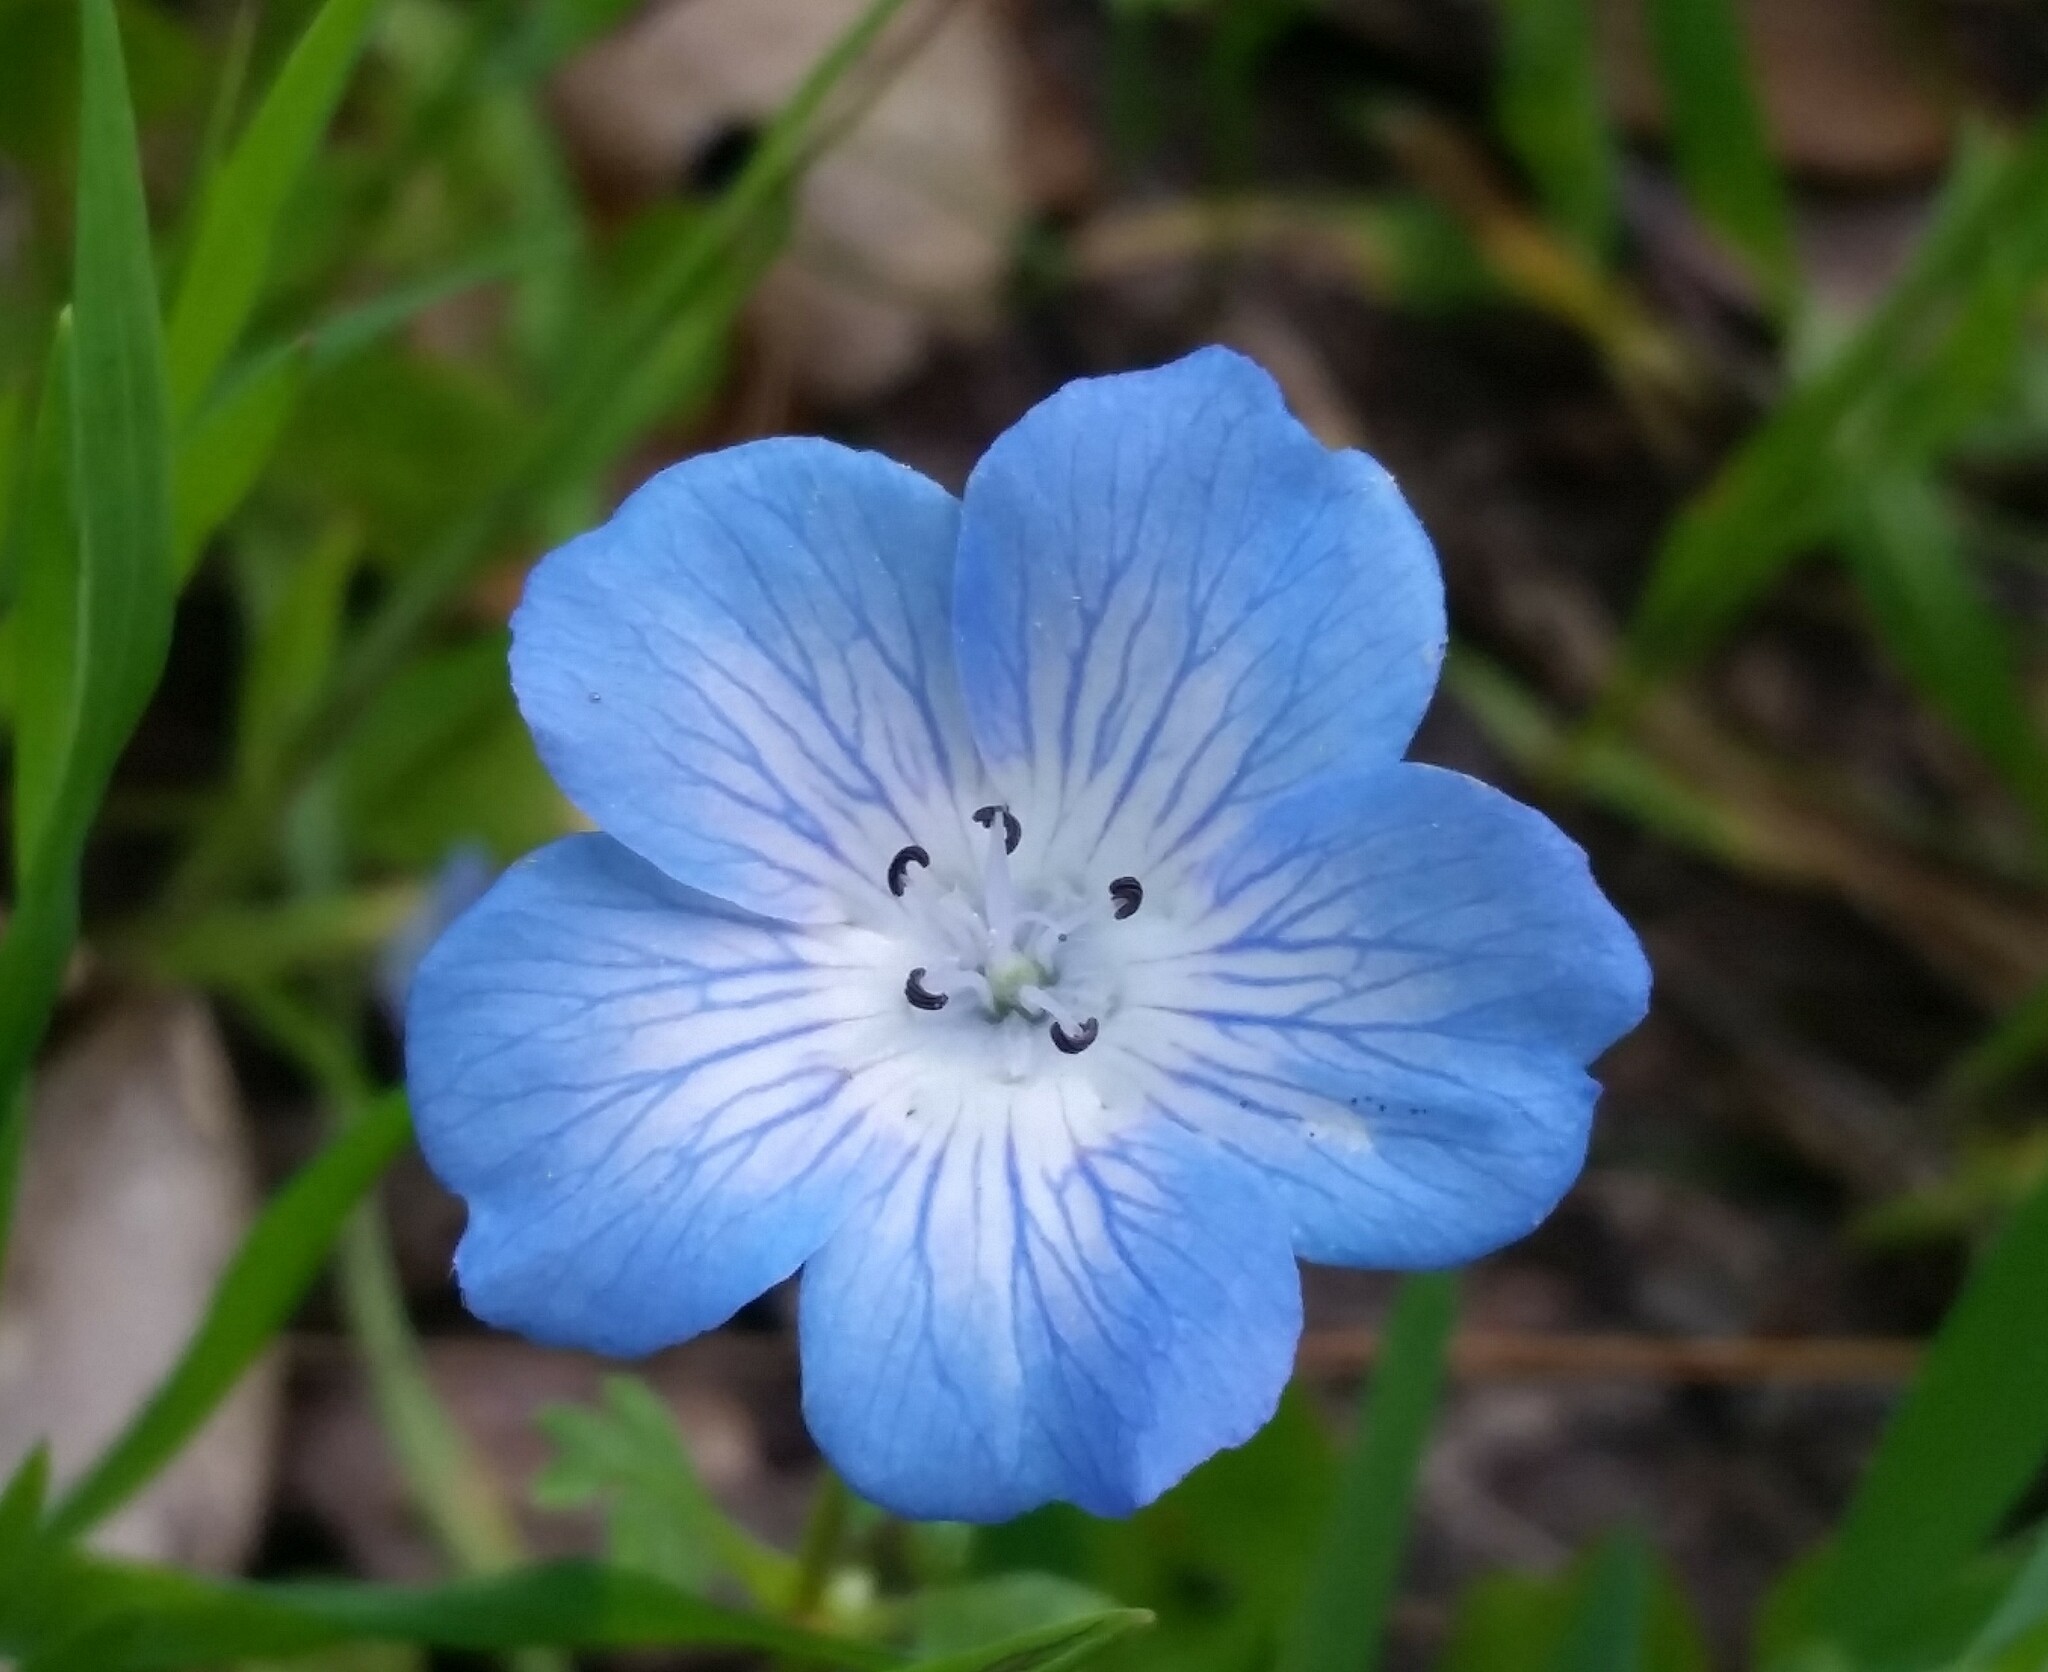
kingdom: Plantae
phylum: Tracheophyta
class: Magnoliopsida
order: Boraginales
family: Hydrophyllaceae
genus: Nemophila
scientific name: Nemophila menziesii
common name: Baby's-blue-eyes
